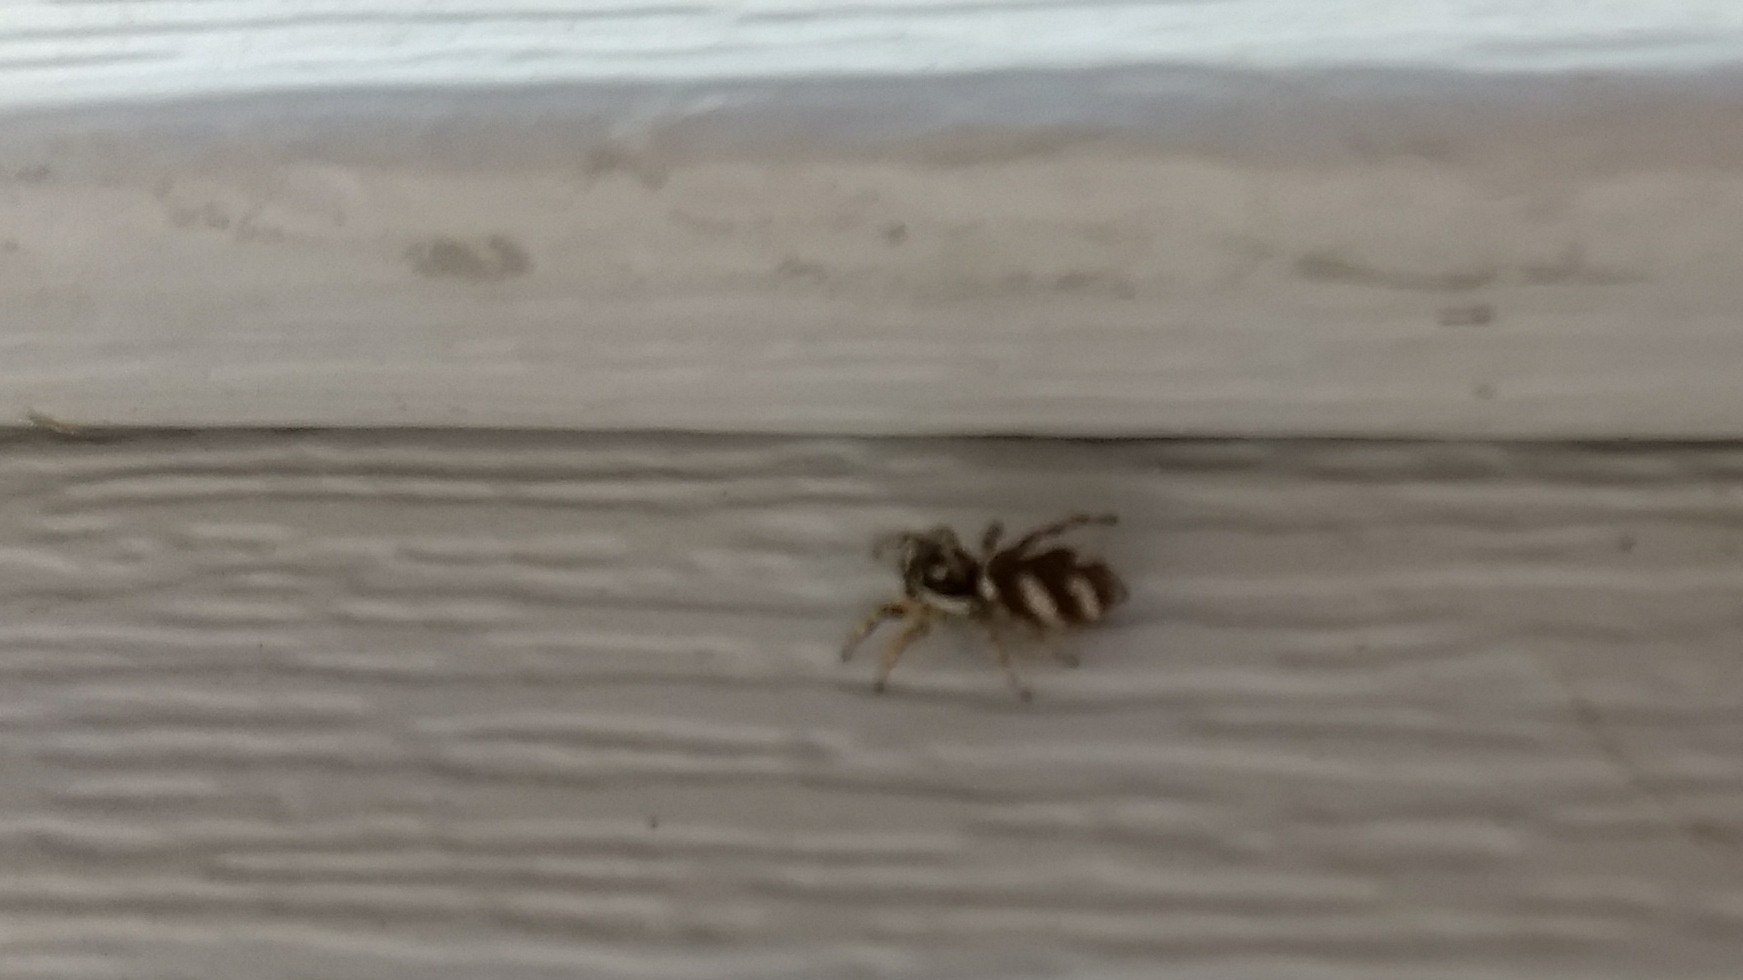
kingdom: Animalia
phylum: Arthropoda
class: Arachnida
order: Araneae
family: Salticidae
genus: Salticus
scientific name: Salticus scenicus
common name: Zebra jumper
